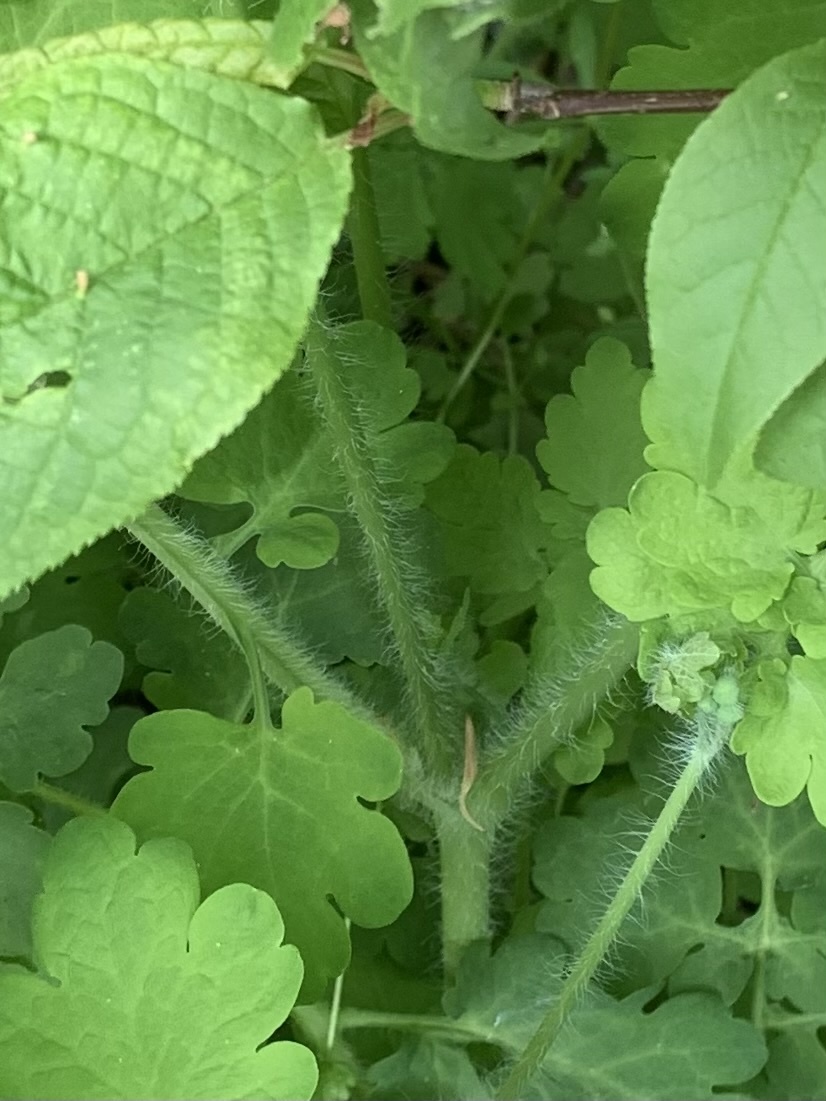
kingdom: Plantae
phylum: Tracheophyta
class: Magnoliopsida
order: Ranunculales
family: Papaveraceae
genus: Chelidonium
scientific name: Chelidonium majus
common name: Greater celandine
